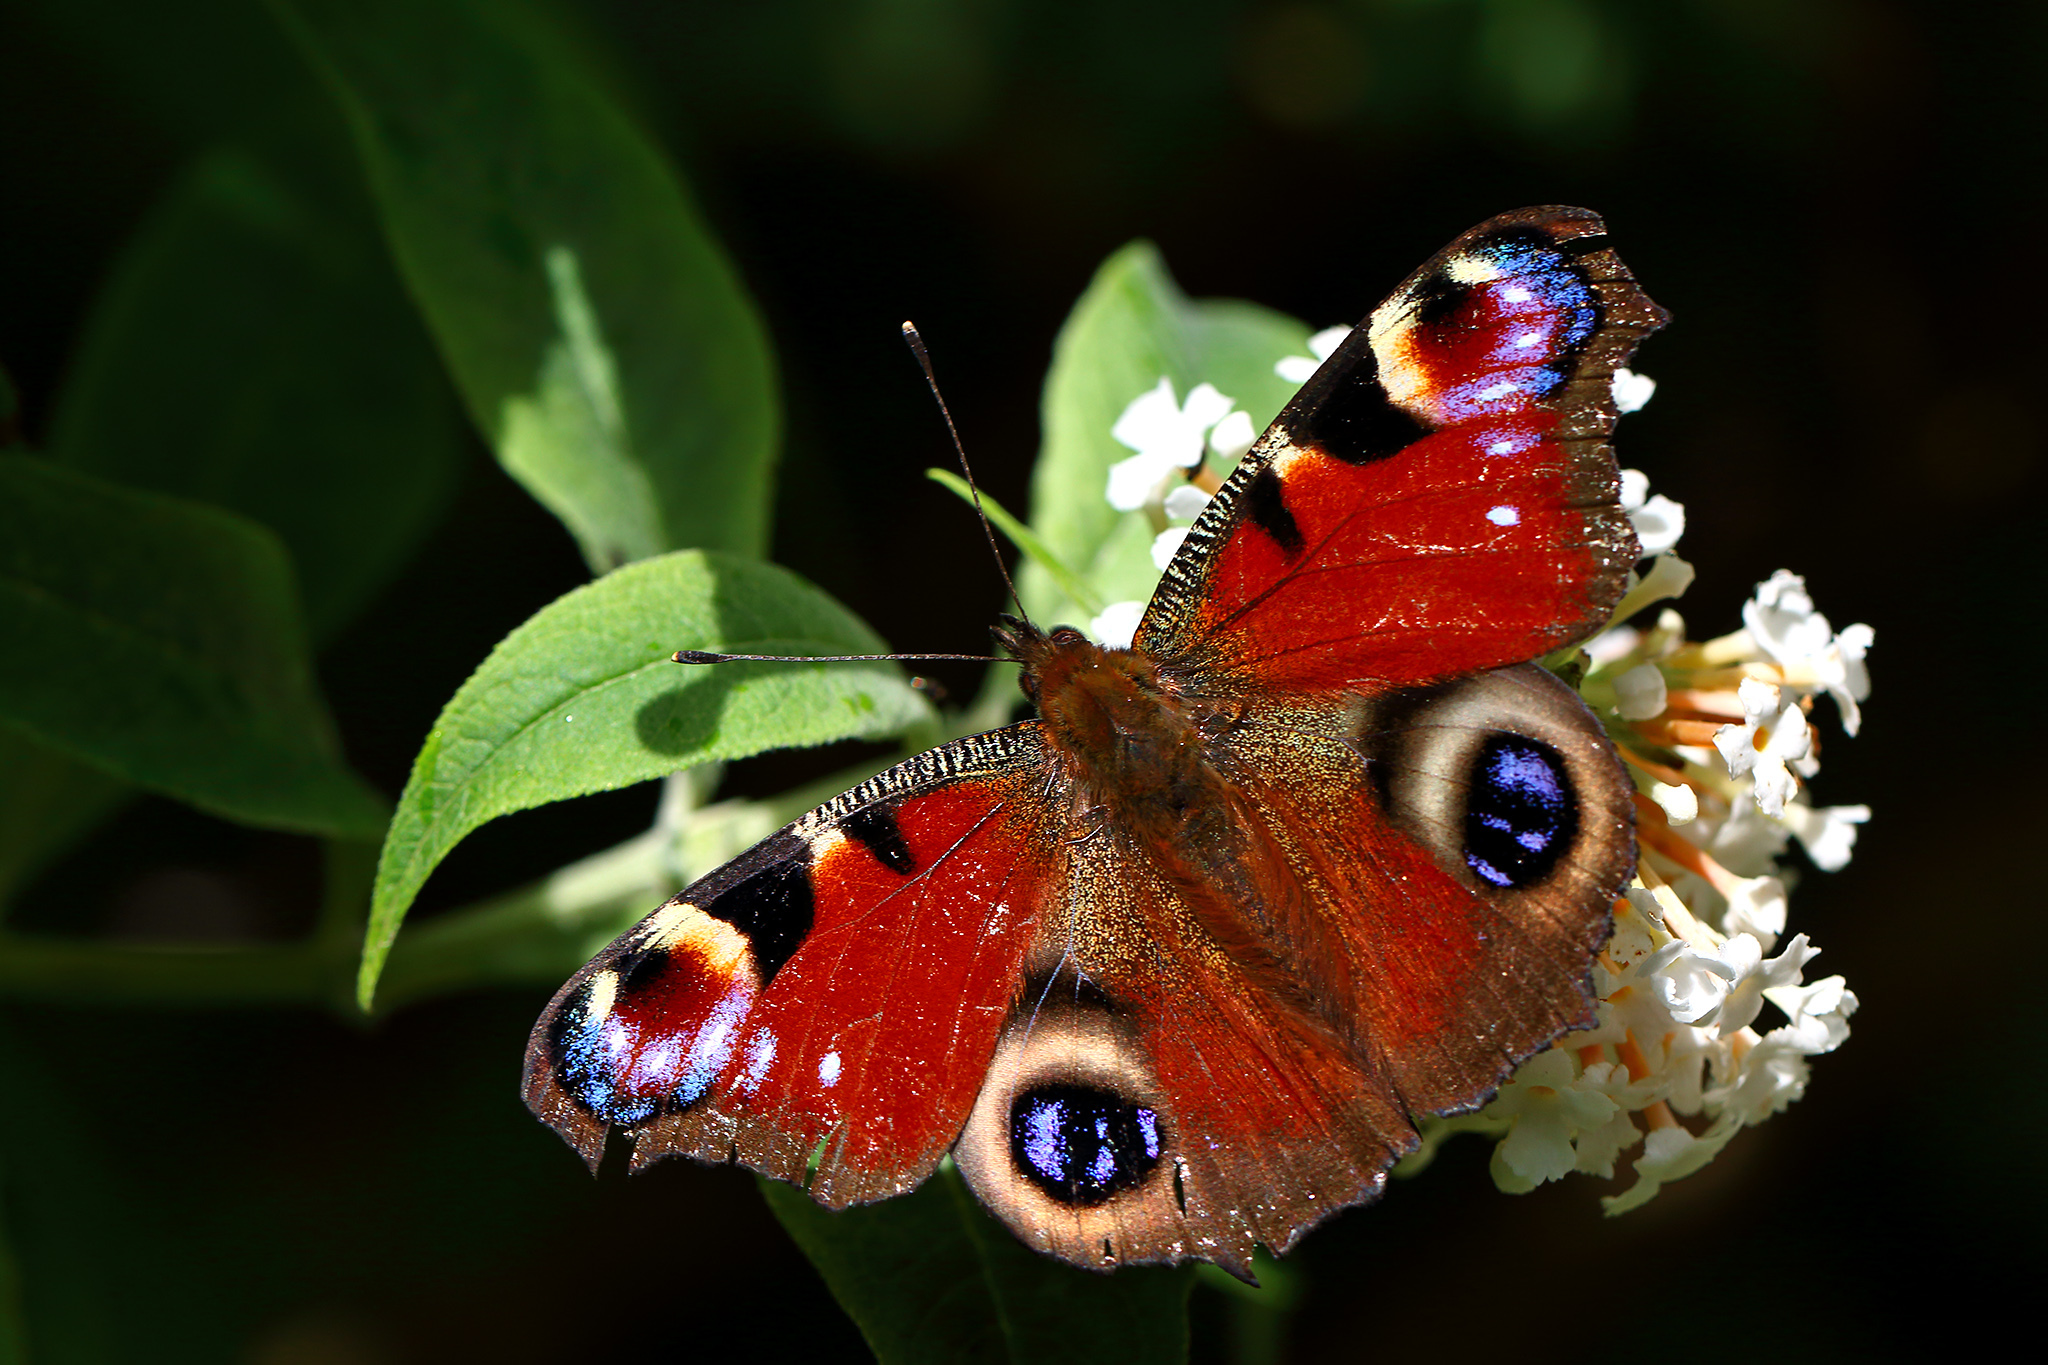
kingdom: Animalia
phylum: Arthropoda
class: Insecta
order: Lepidoptera
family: Nymphalidae
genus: Aglais
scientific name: Aglais io
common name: Peacock
